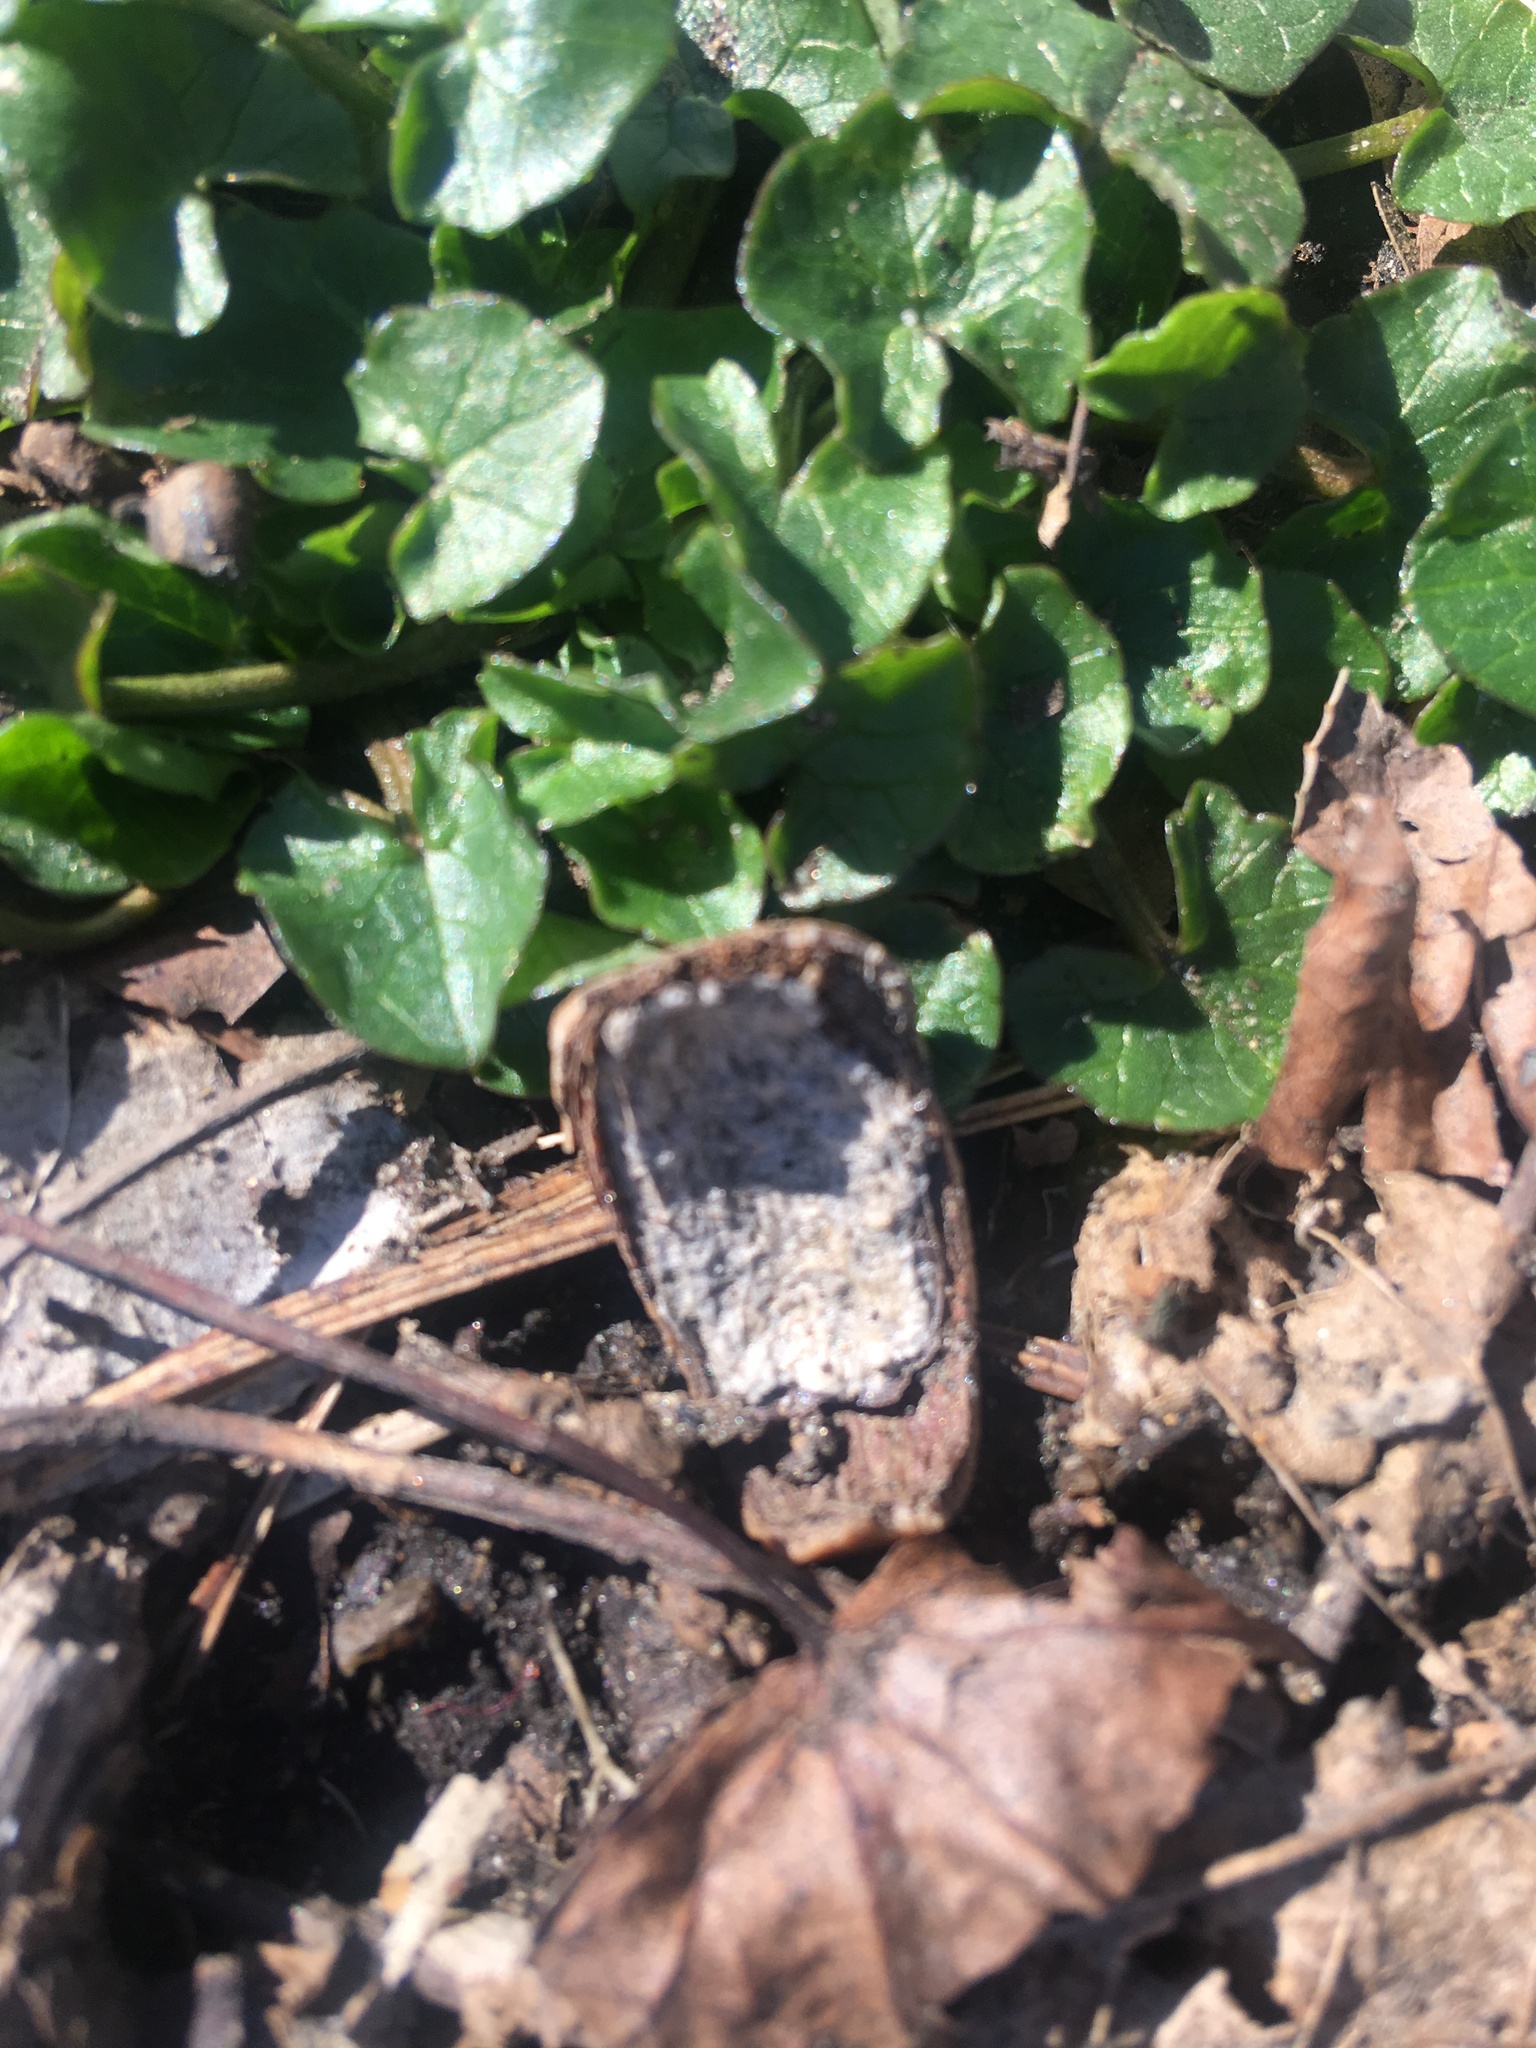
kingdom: Plantae
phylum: Tracheophyta
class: Magnoliopsida
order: Ranunculales
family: Ranunculaceae
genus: Ficaria
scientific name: Ficaria verna
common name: Lesser celandine
